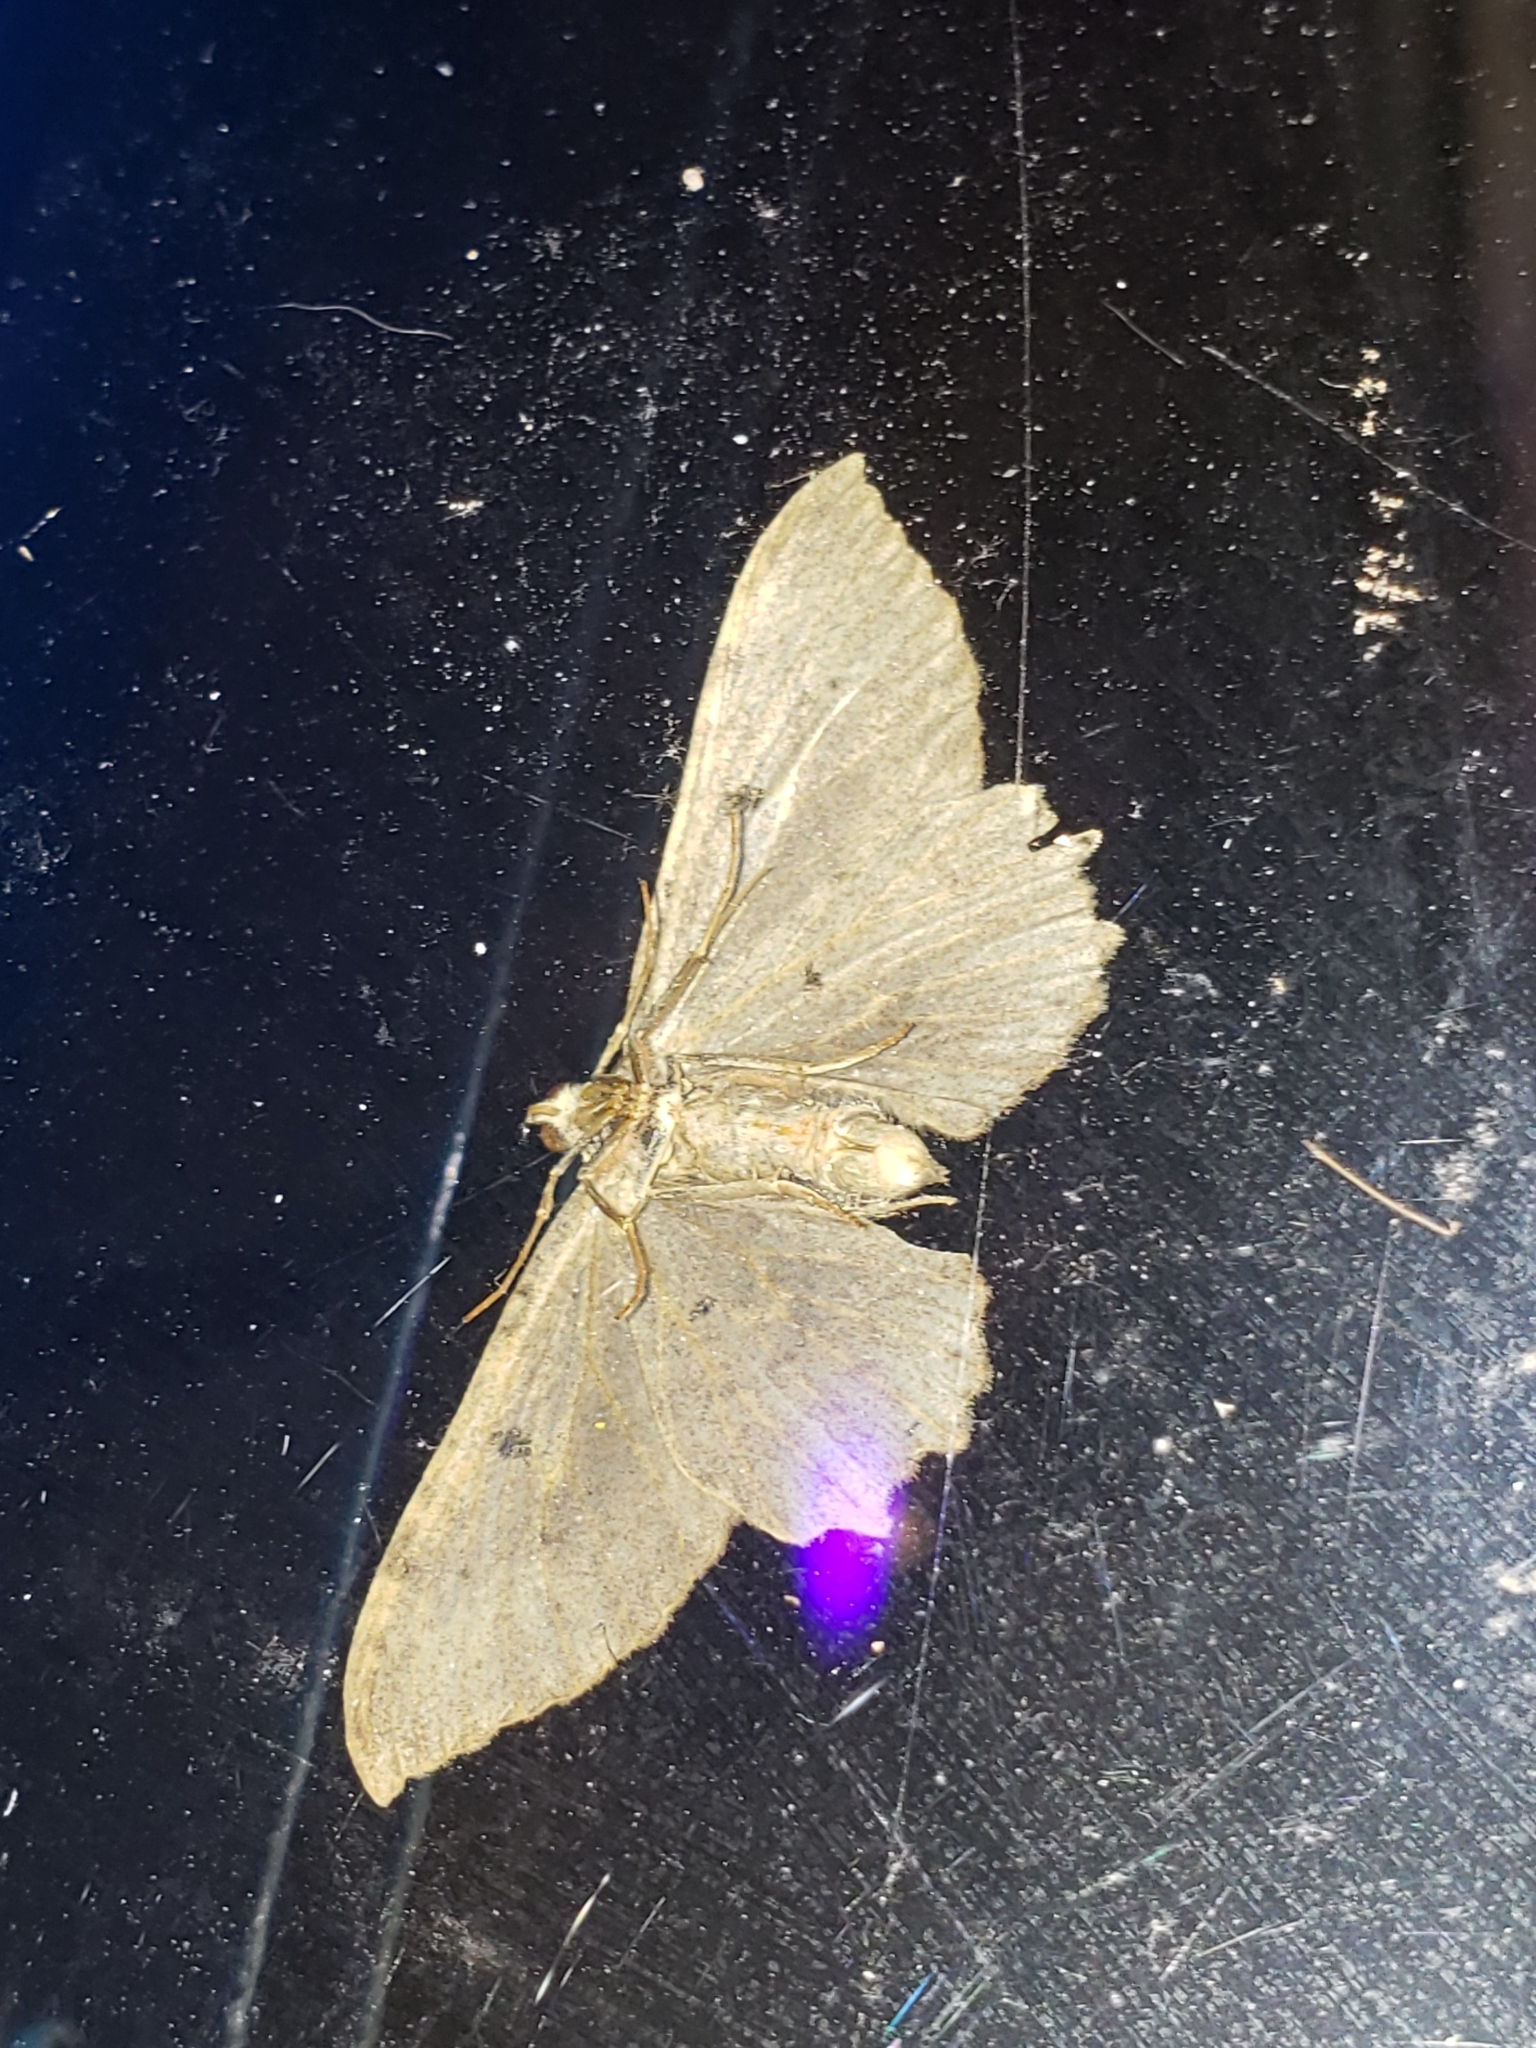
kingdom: Animalia
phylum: Arthropoda
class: Insecta
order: Lepidoptera
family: Geometridae
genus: Rheumaptera
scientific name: Rheumaptera
